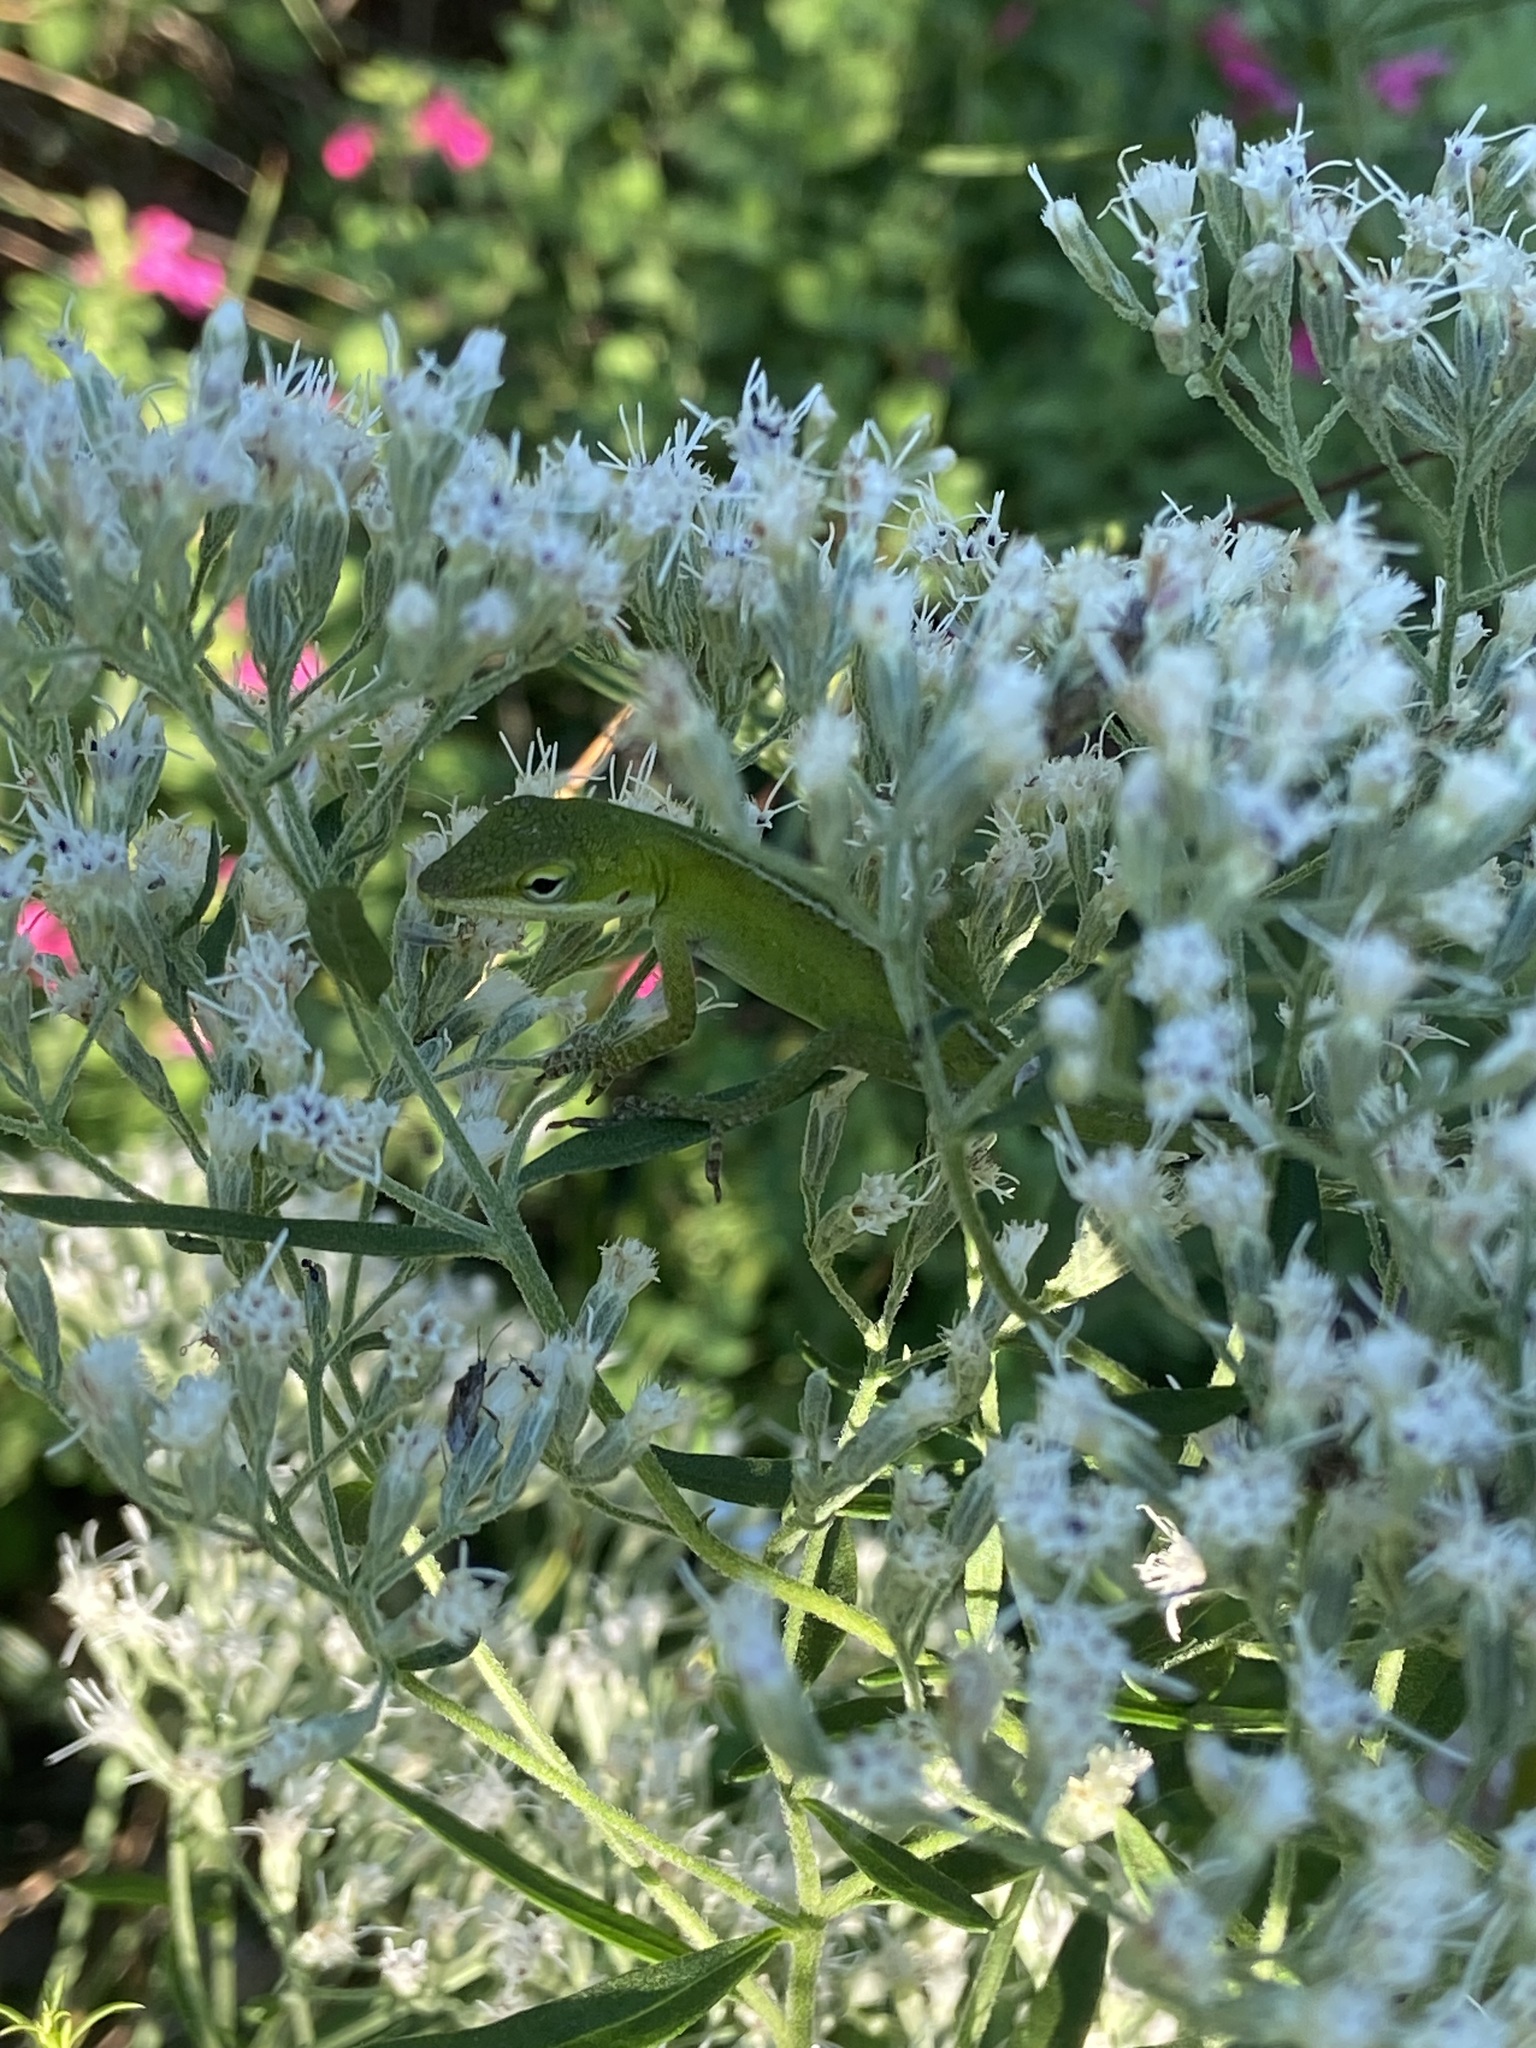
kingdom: Animalia
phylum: Chordata
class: Squamata
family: Dactyloidae
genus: Anolis
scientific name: Anolis carolinensis
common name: Green anole
